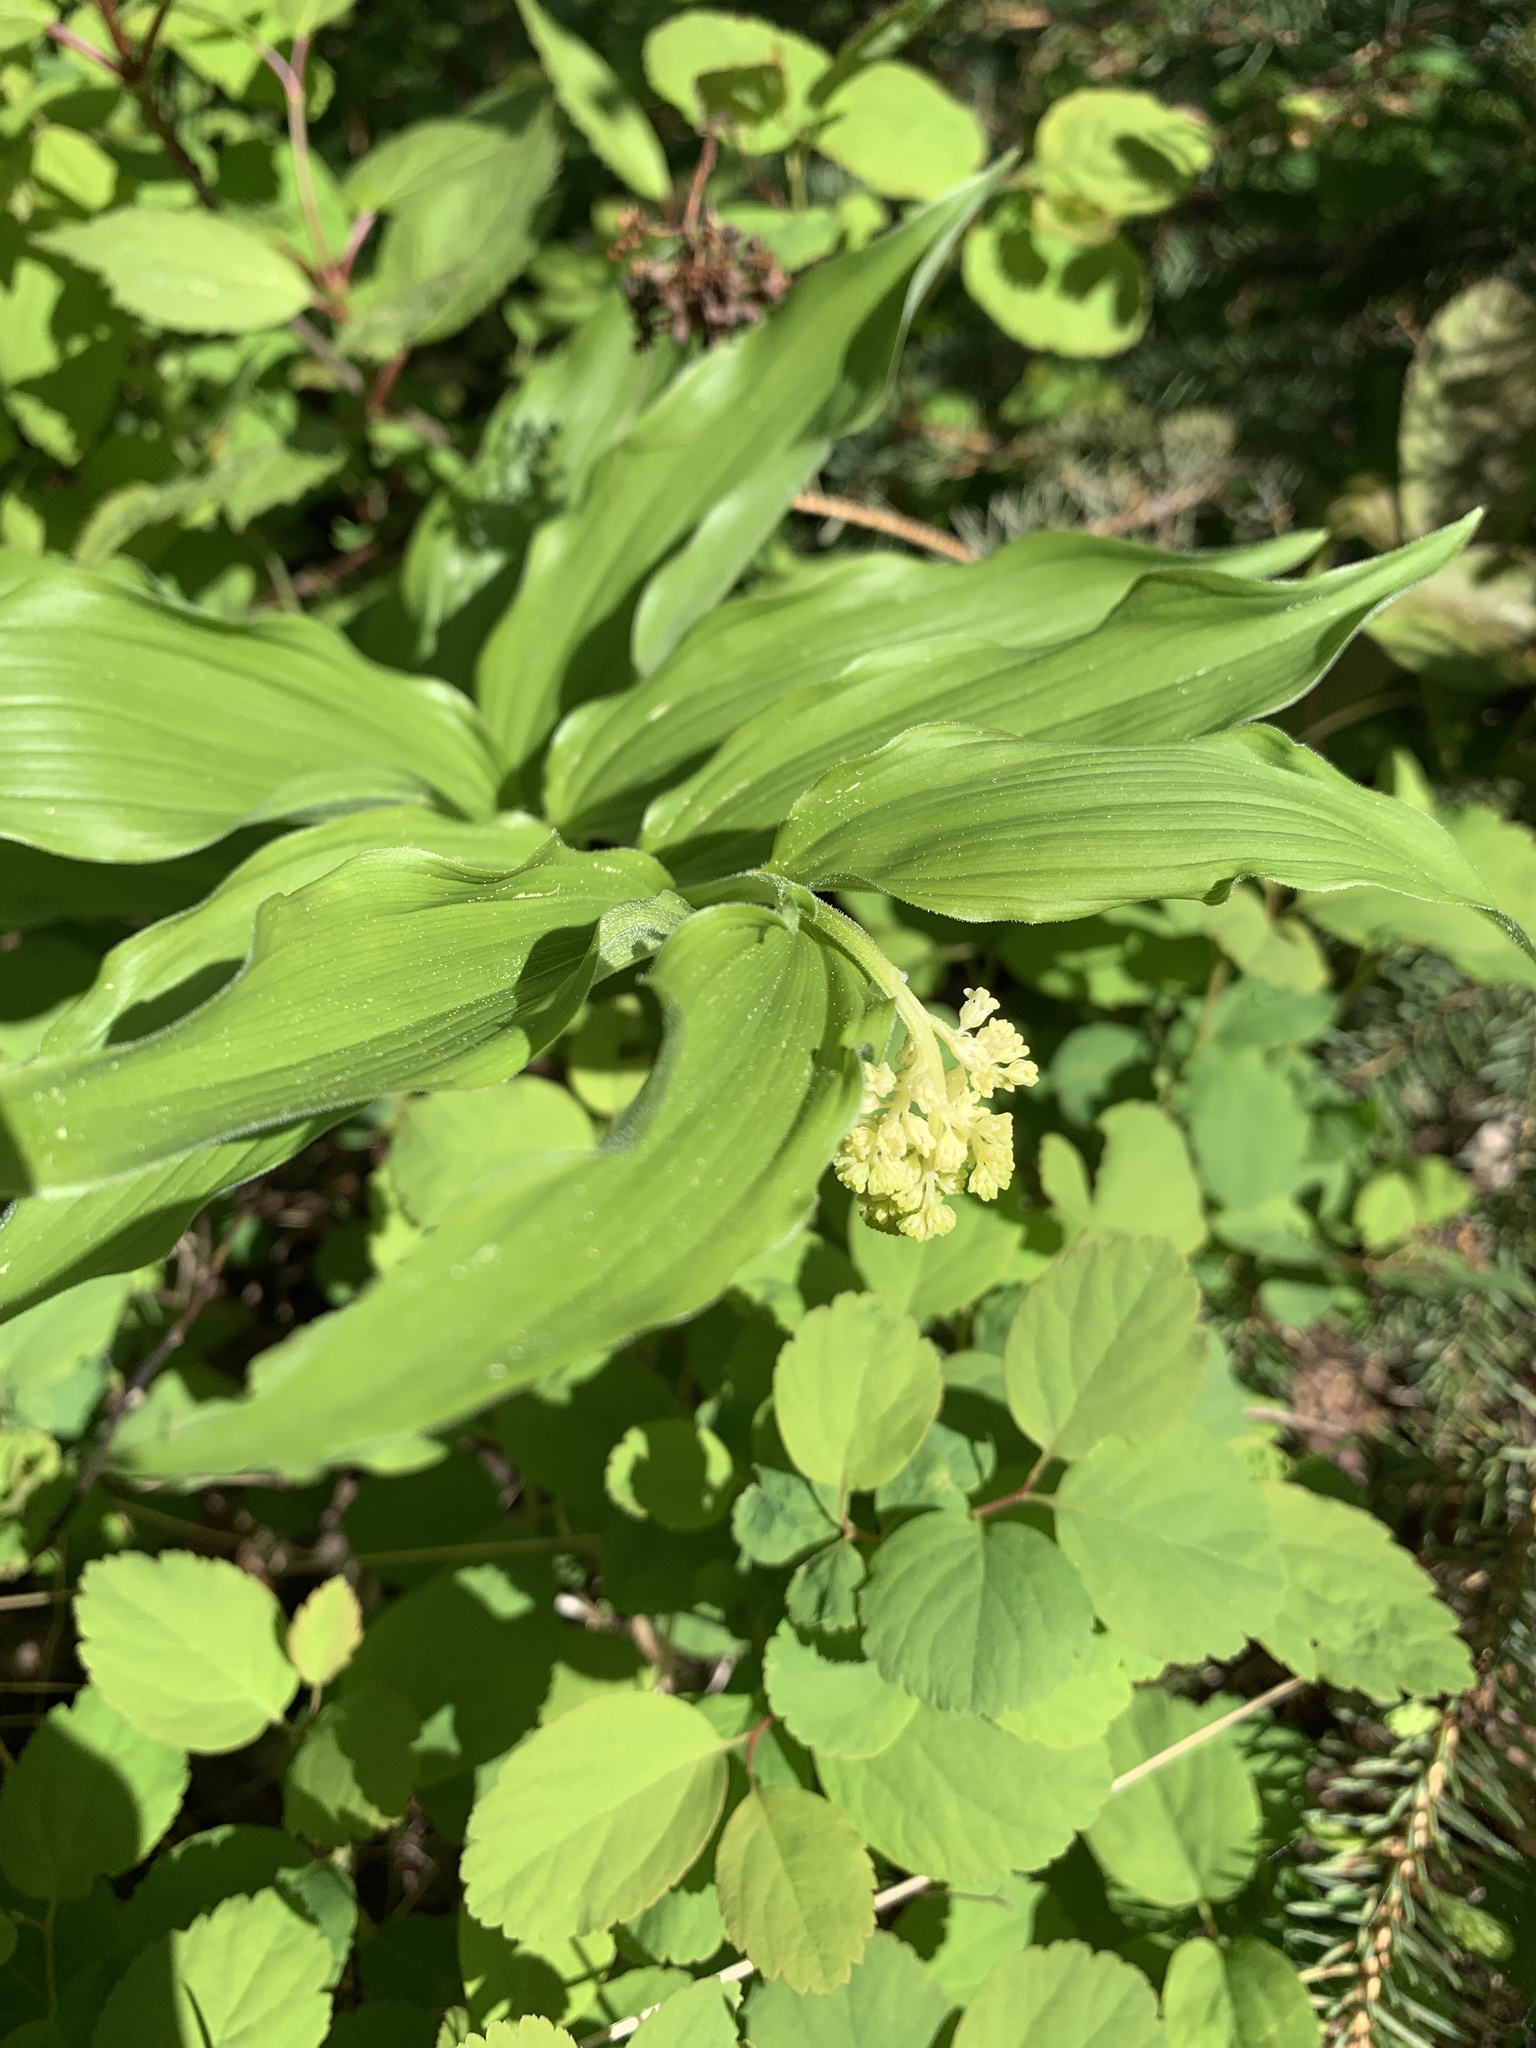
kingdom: Plantae
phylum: Tracheophyta
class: Liliopsida
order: Asparagales
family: Asparagaceae
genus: Maianthemum
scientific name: Maianthemum racemosum
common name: False spikenard
